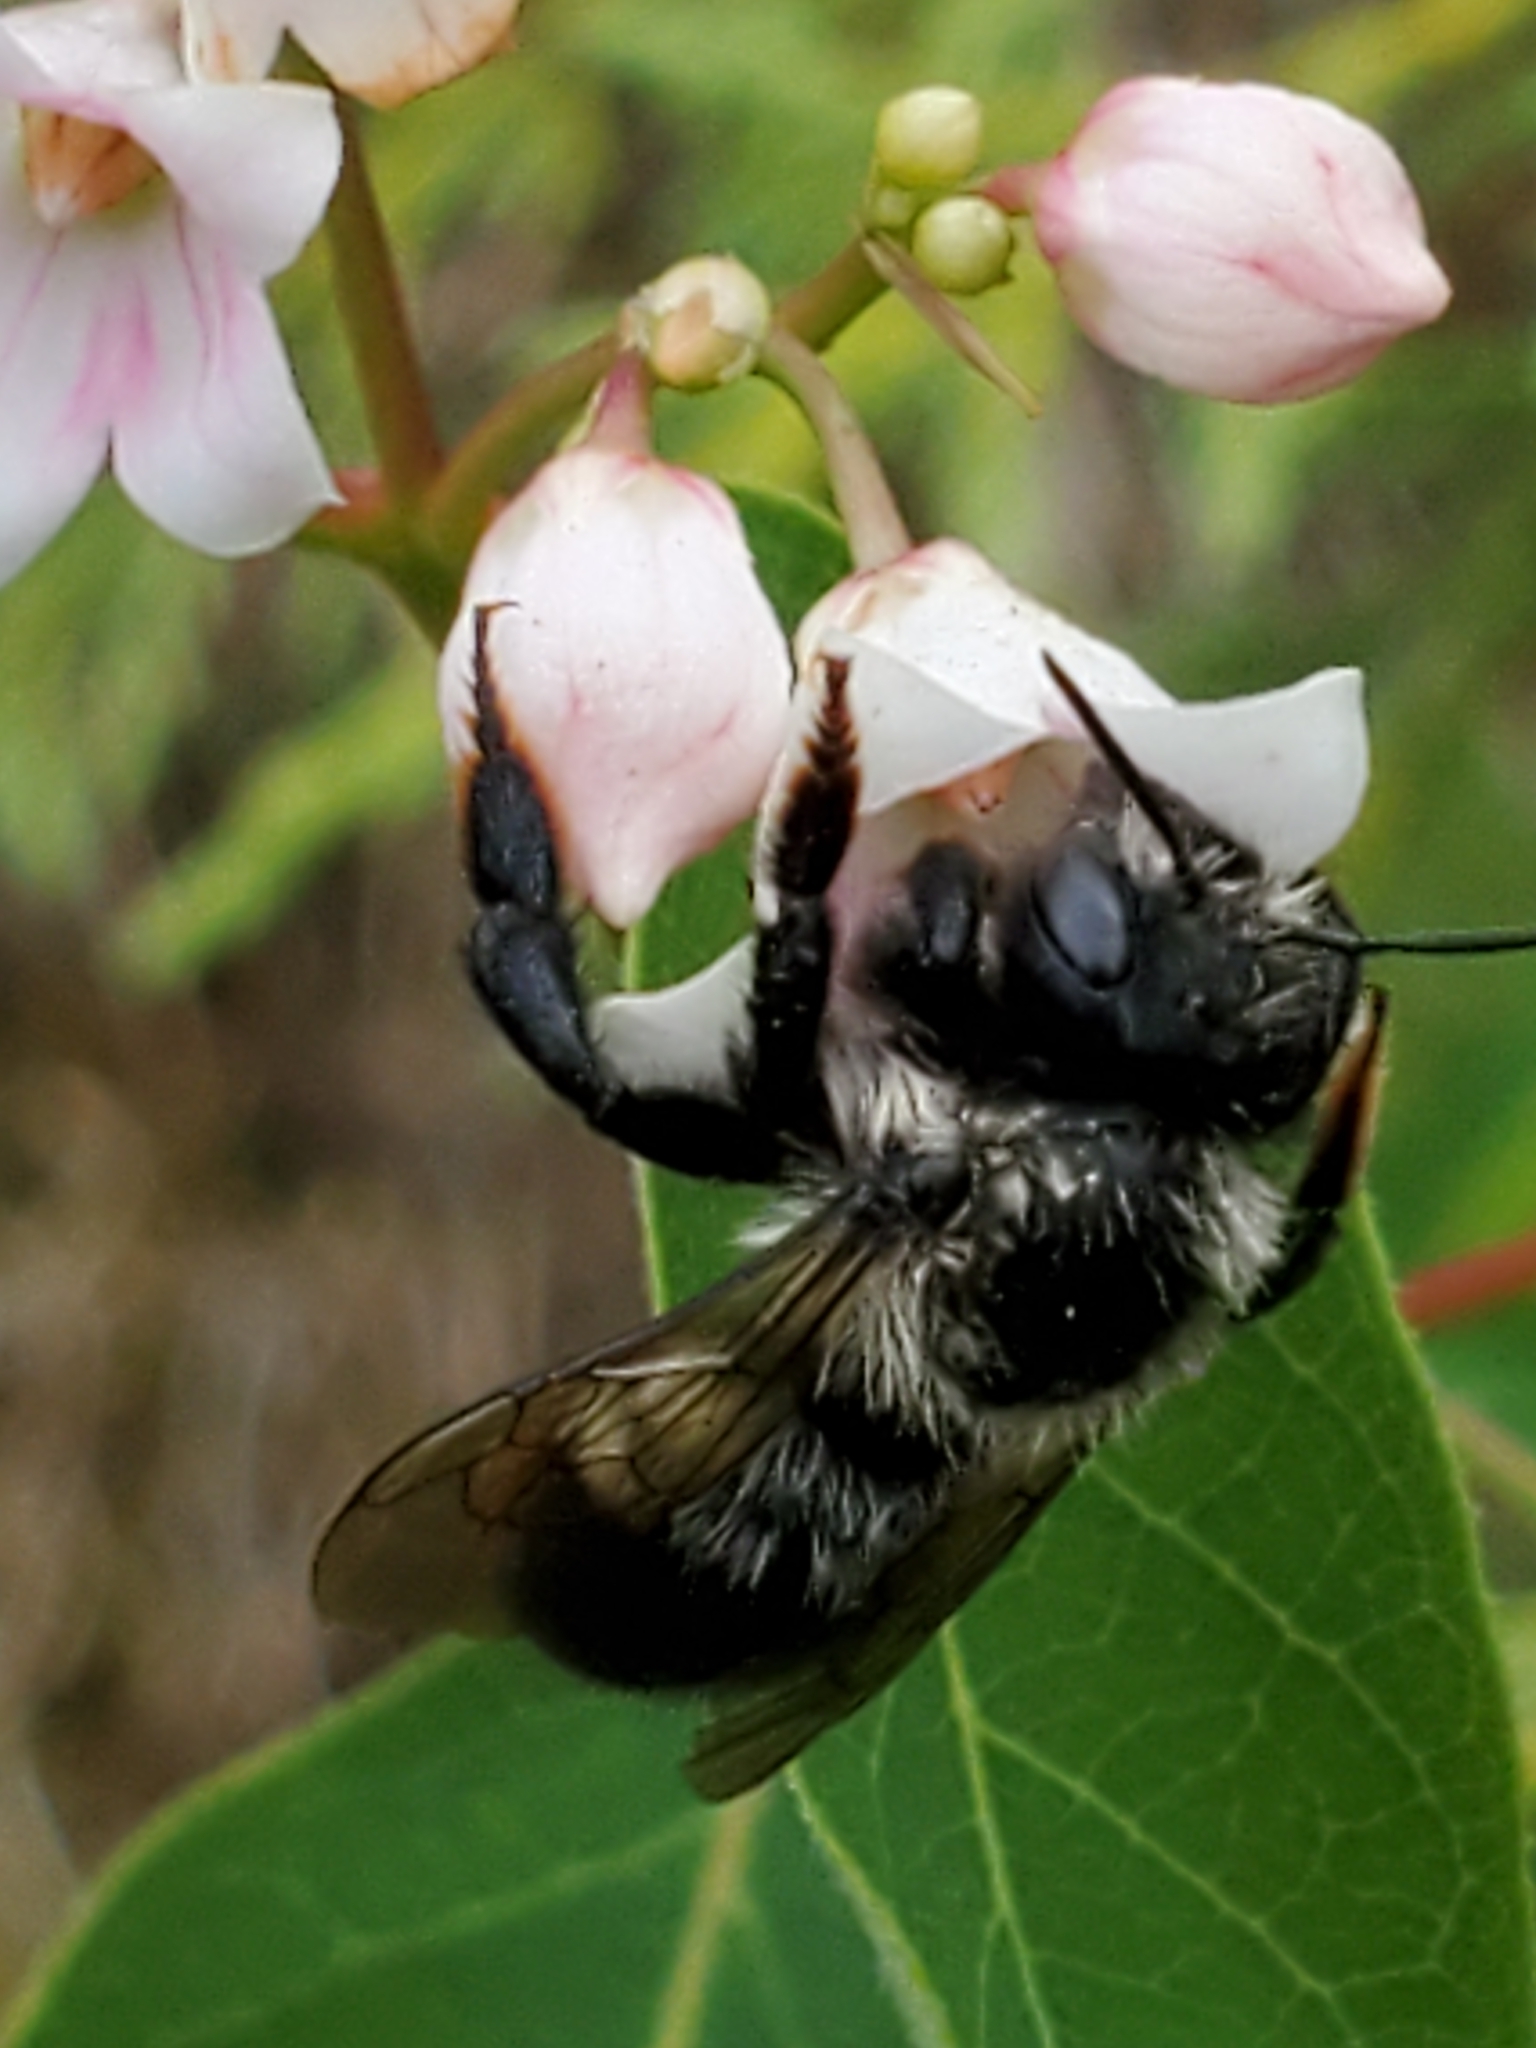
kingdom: Animalia
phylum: Arthropoda
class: Insecta
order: Hymenoptera
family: Megachilidae
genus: Megachile
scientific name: Megachile melanophaea
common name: Black-and-gray leafcutter bee
